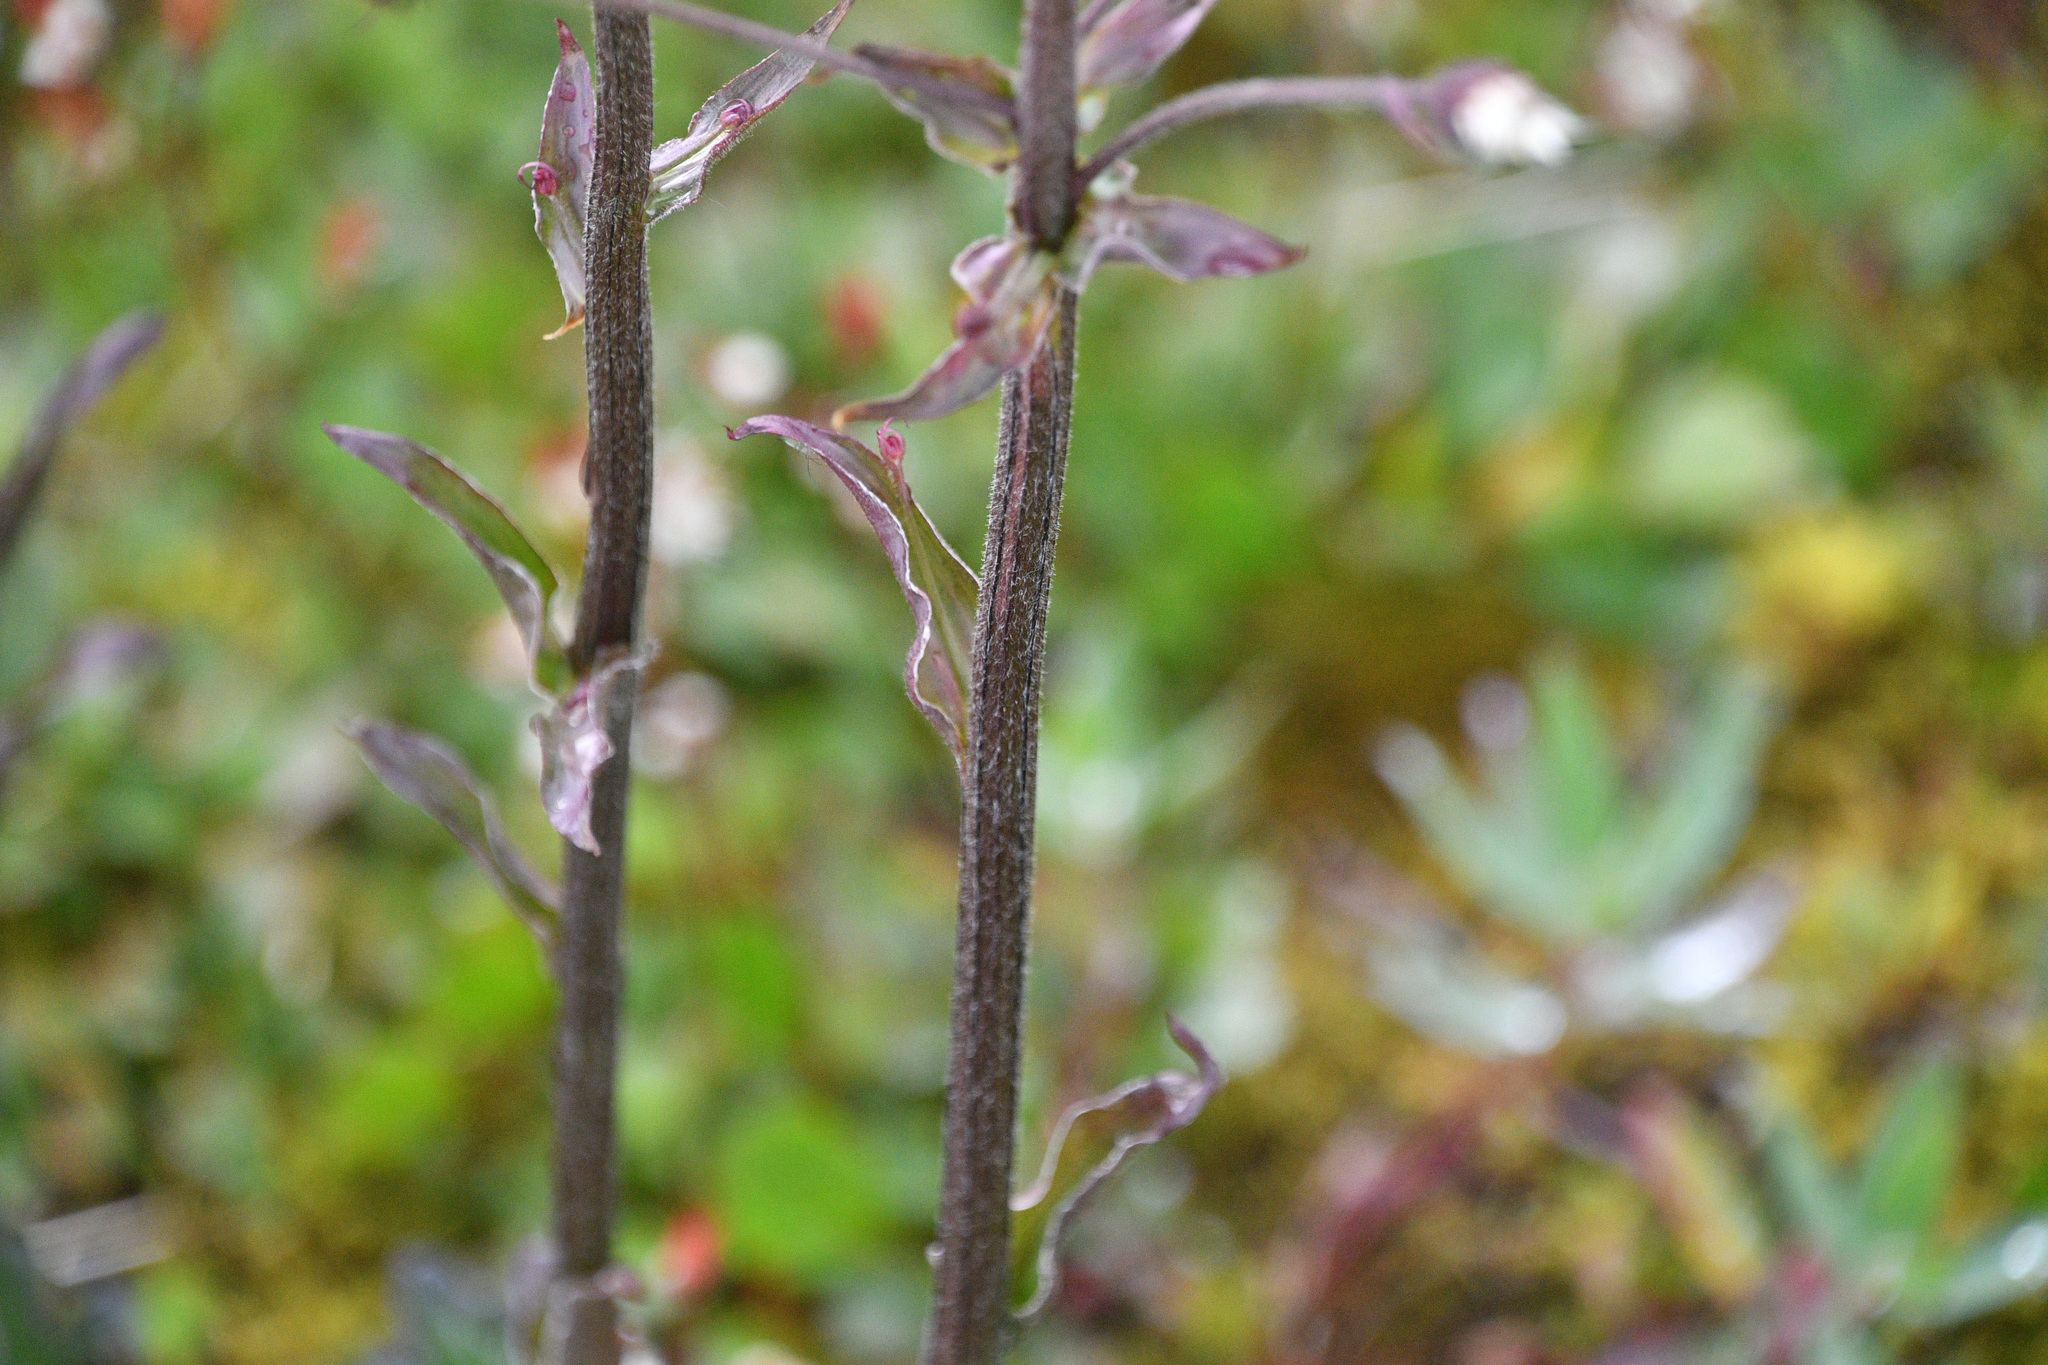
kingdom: Plantae
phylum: Tracheophyta
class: Magnoliopsida
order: Asterales
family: Asteraceae
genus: Petasites
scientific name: Petasites frigidus
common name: Arctic butterbur
